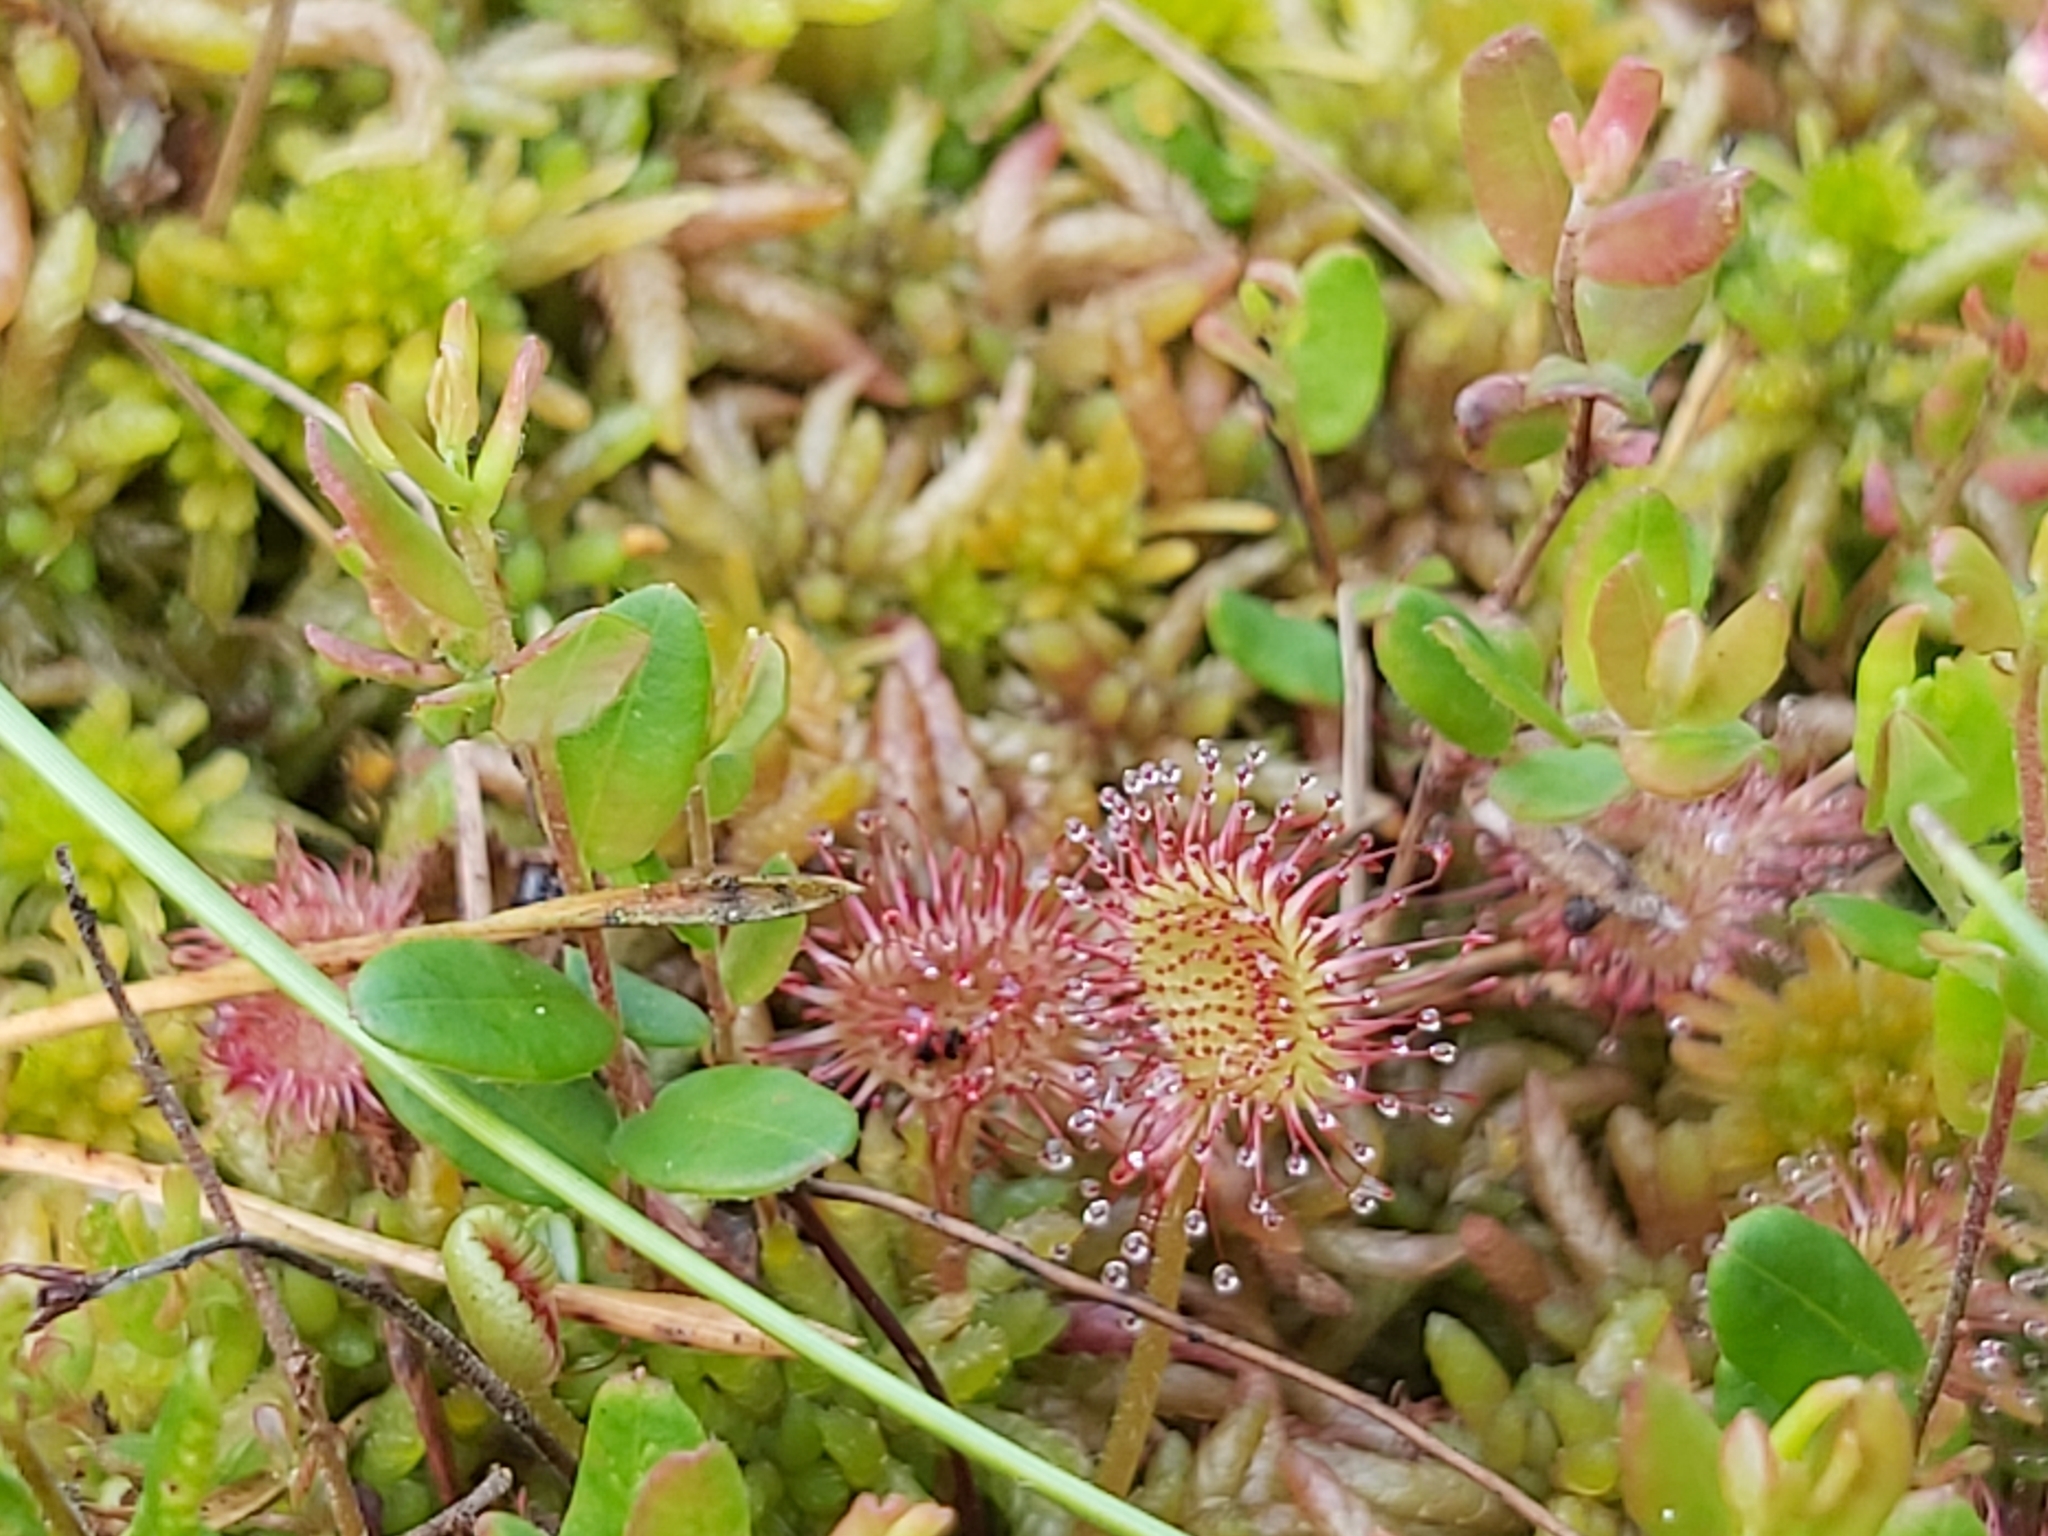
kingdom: Plantae
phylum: Tracheophyta
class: Magnoliopsida
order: Caryophyllales
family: Droseraceae
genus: Drosera
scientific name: Drosera rotundifolia
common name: Round-leaved sundew
